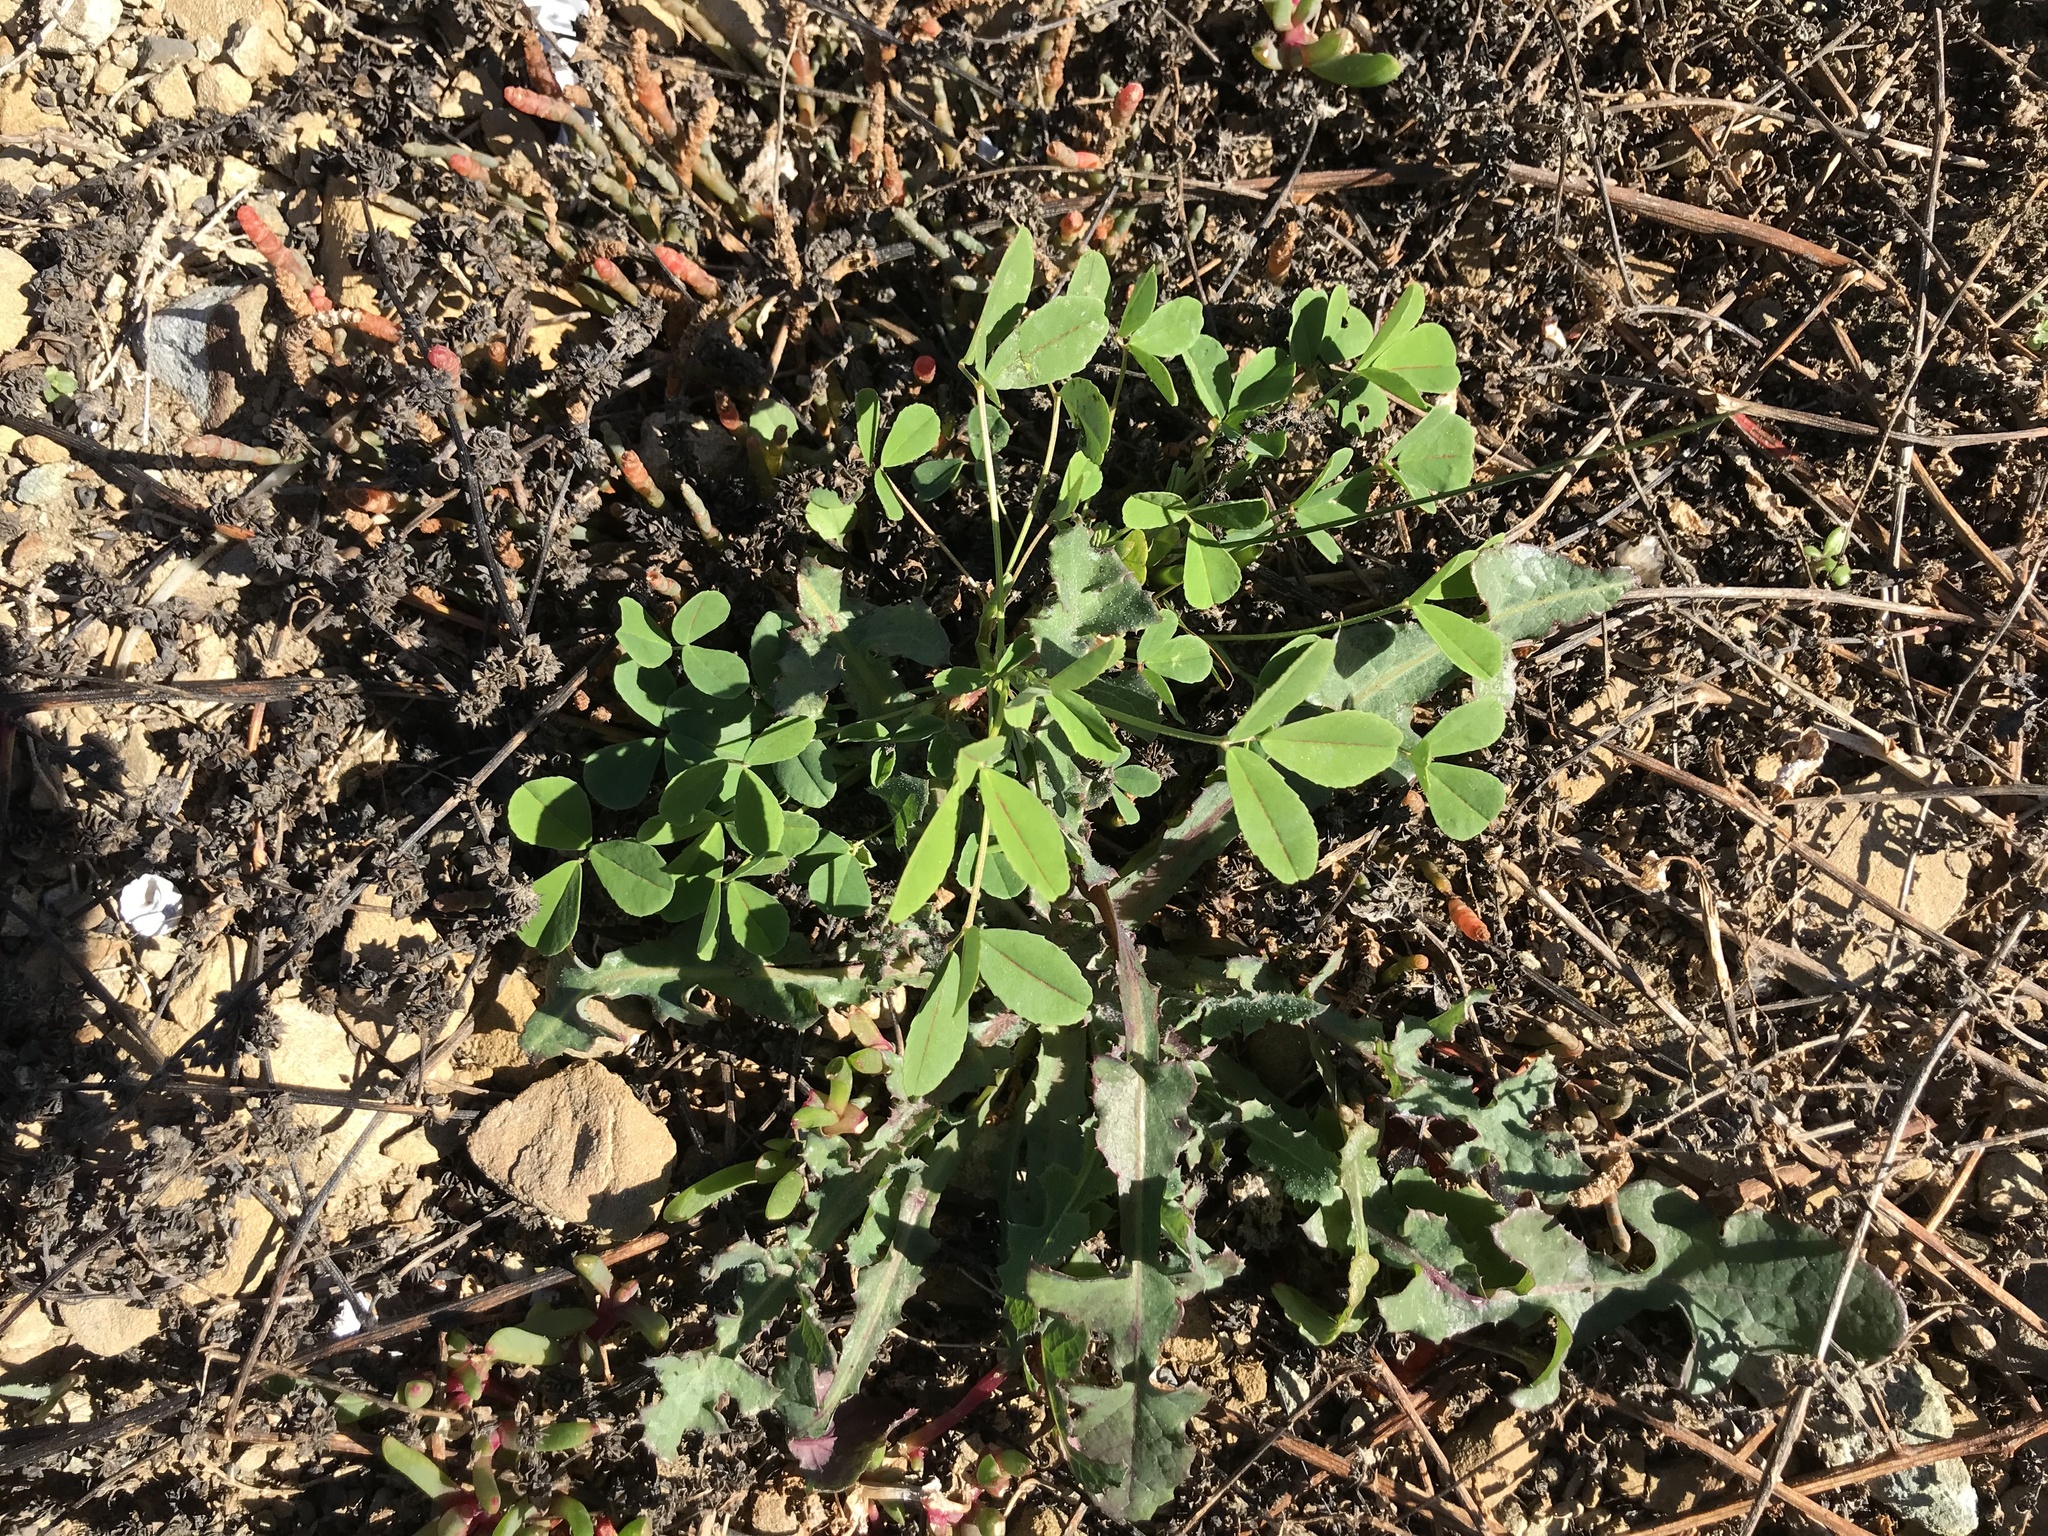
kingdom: Plantae
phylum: Tracheophyta
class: Magnoliopsida
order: Fabales
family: Fabaceae
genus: Medicago
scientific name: Medicago polymorpha
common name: Burclover
